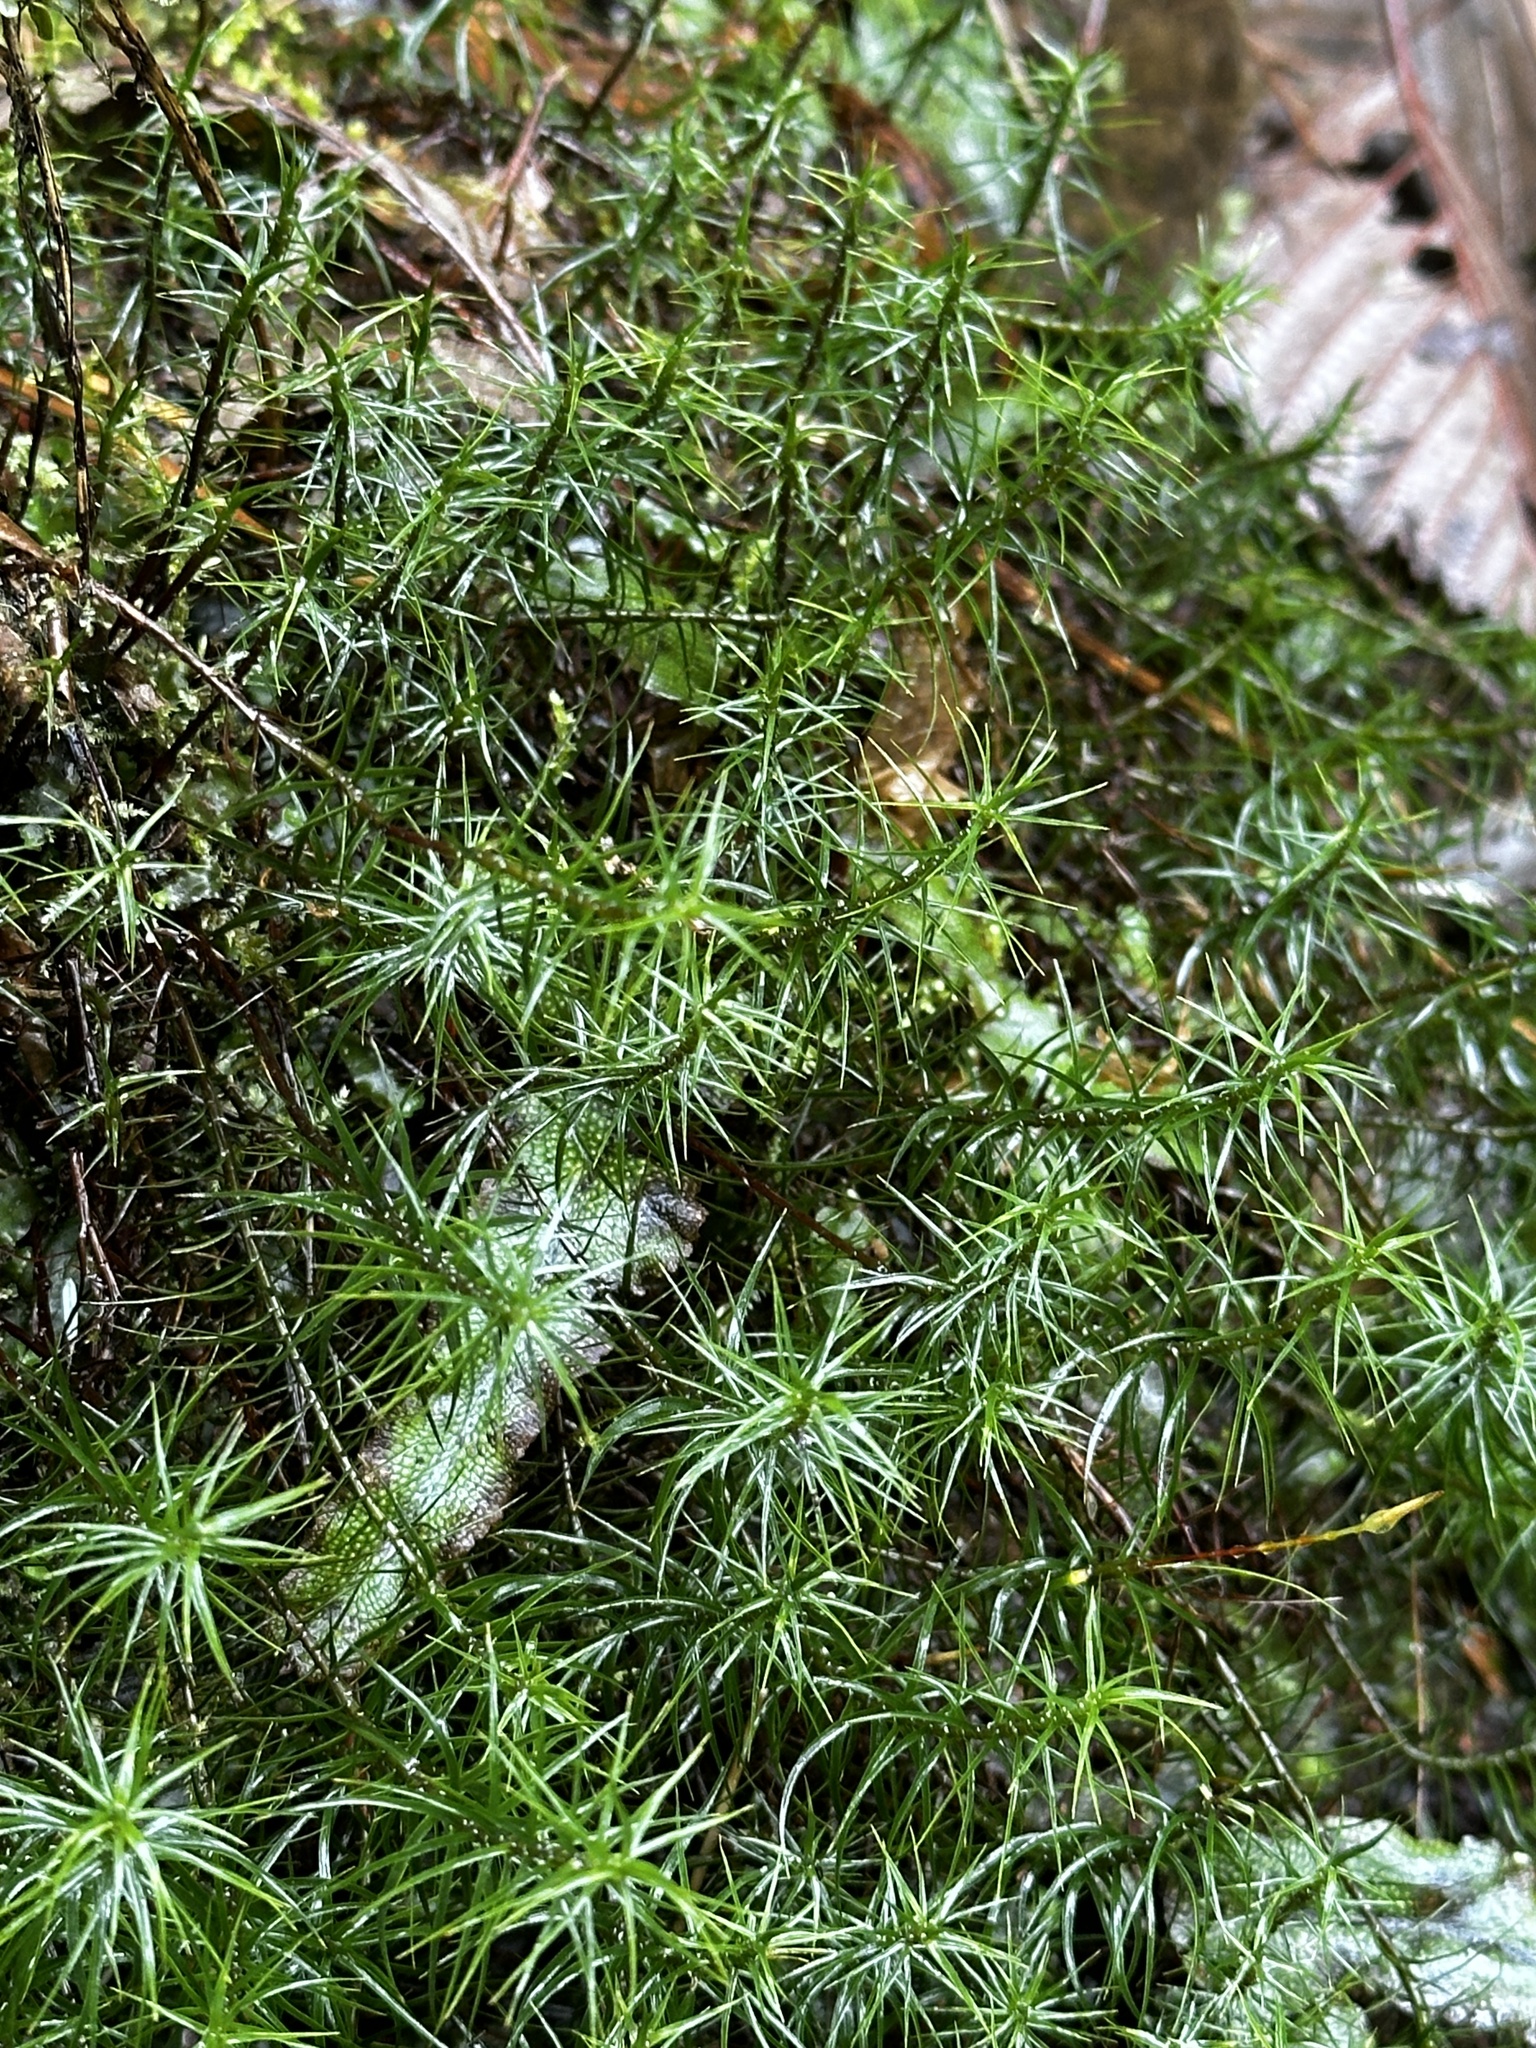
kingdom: Plantae
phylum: Bryophyta
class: Polytrichopsida
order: Polytrichales
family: Polytrichaceae
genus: Polytrichastrum
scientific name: Polytrichastrum alpinum
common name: Alpine haircap
